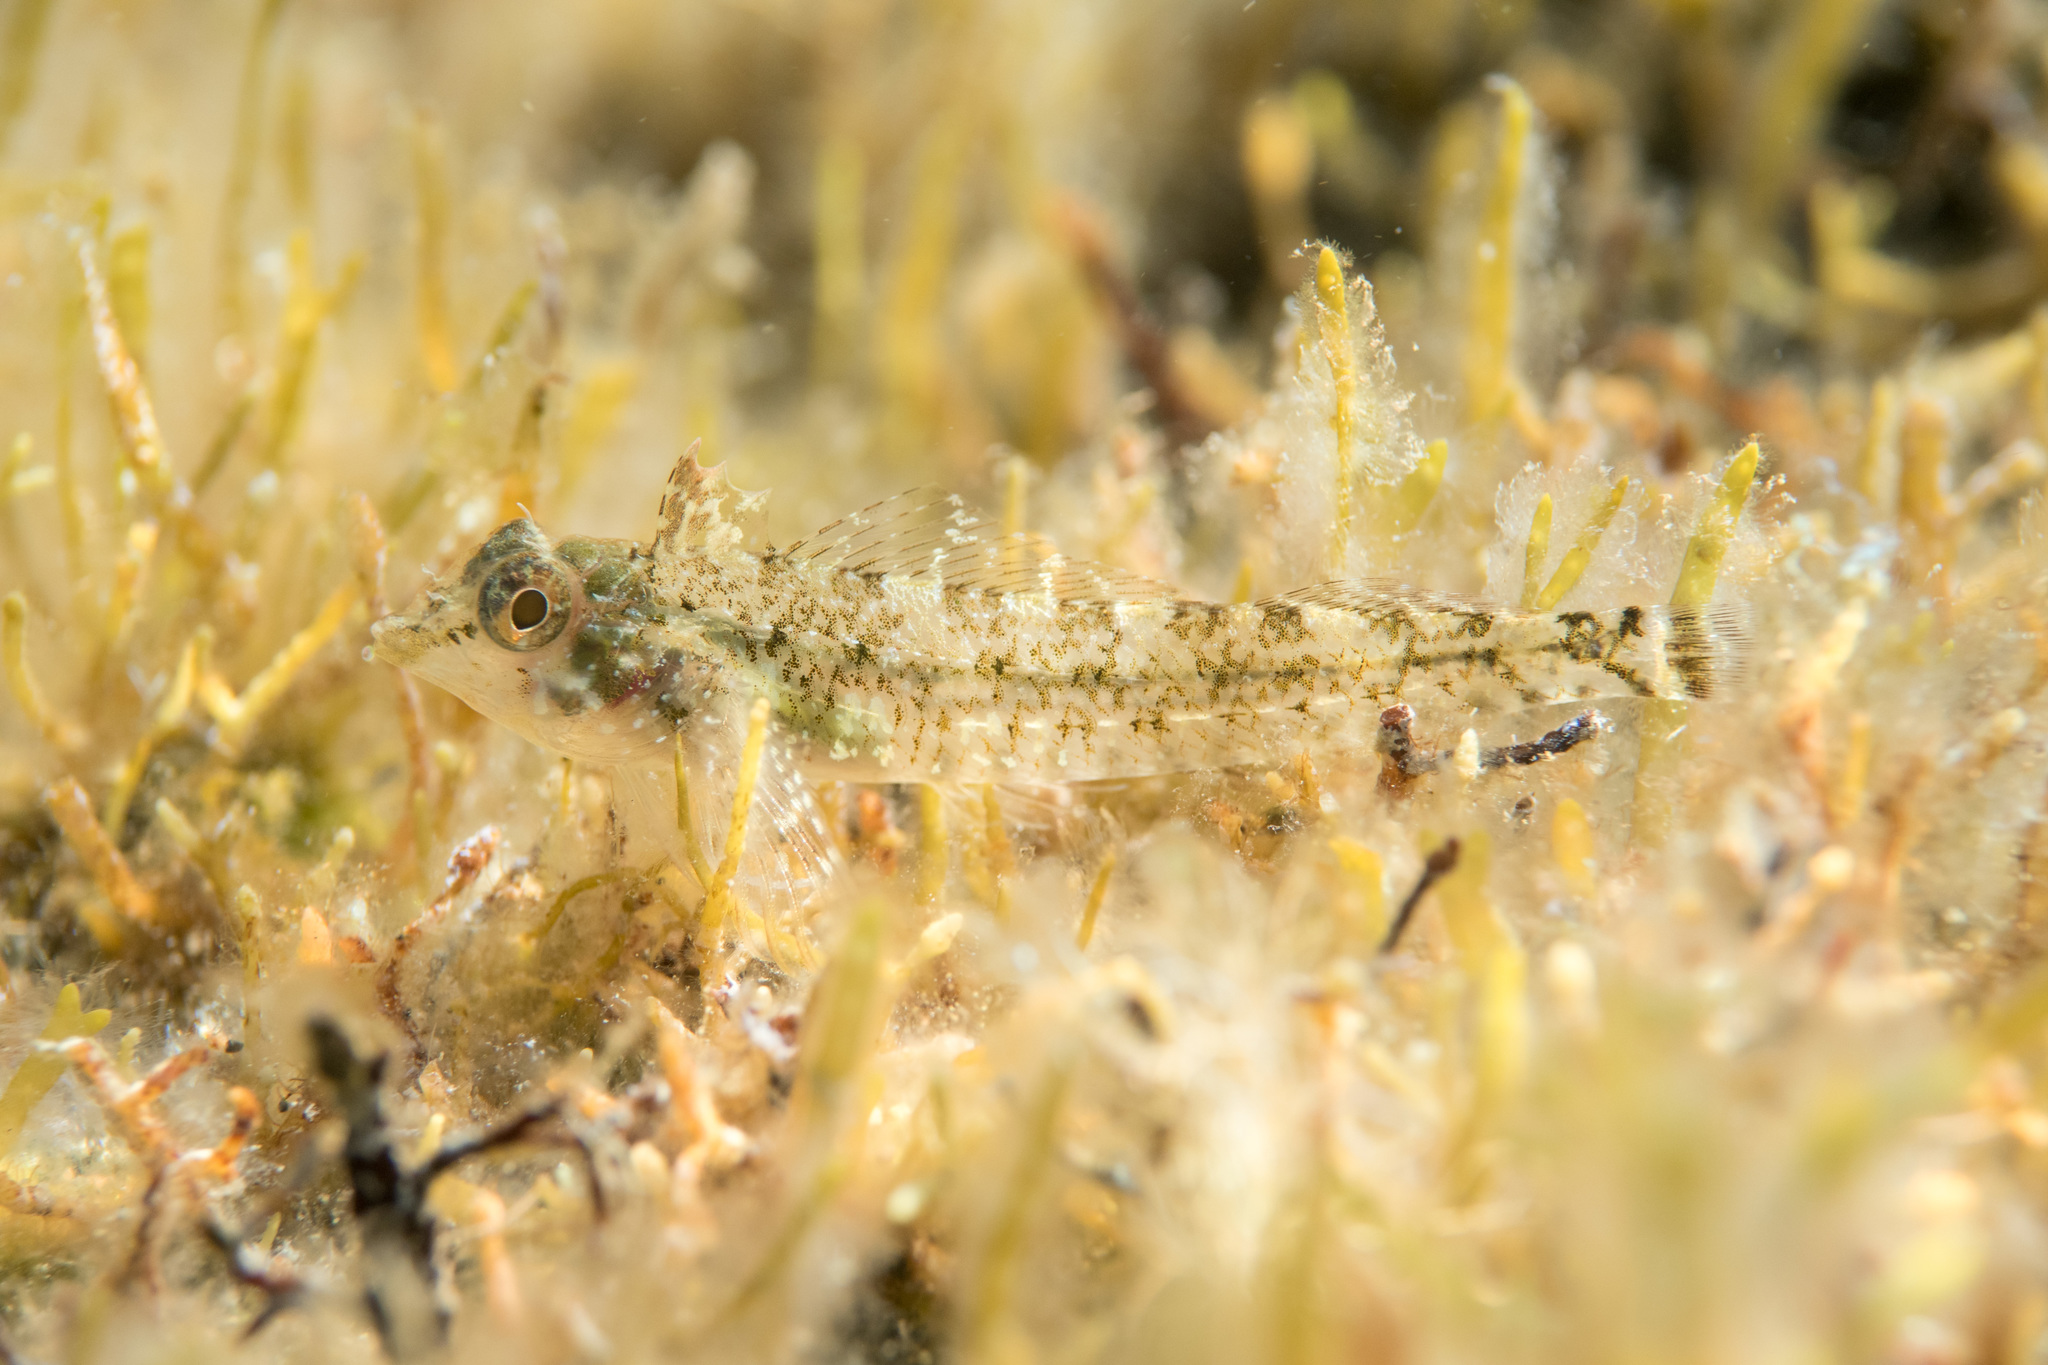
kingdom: Animalia
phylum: Chordata
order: Perciformes
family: Tripterygiidae
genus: Tripterygion
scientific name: Tripterygion tripteronotum
